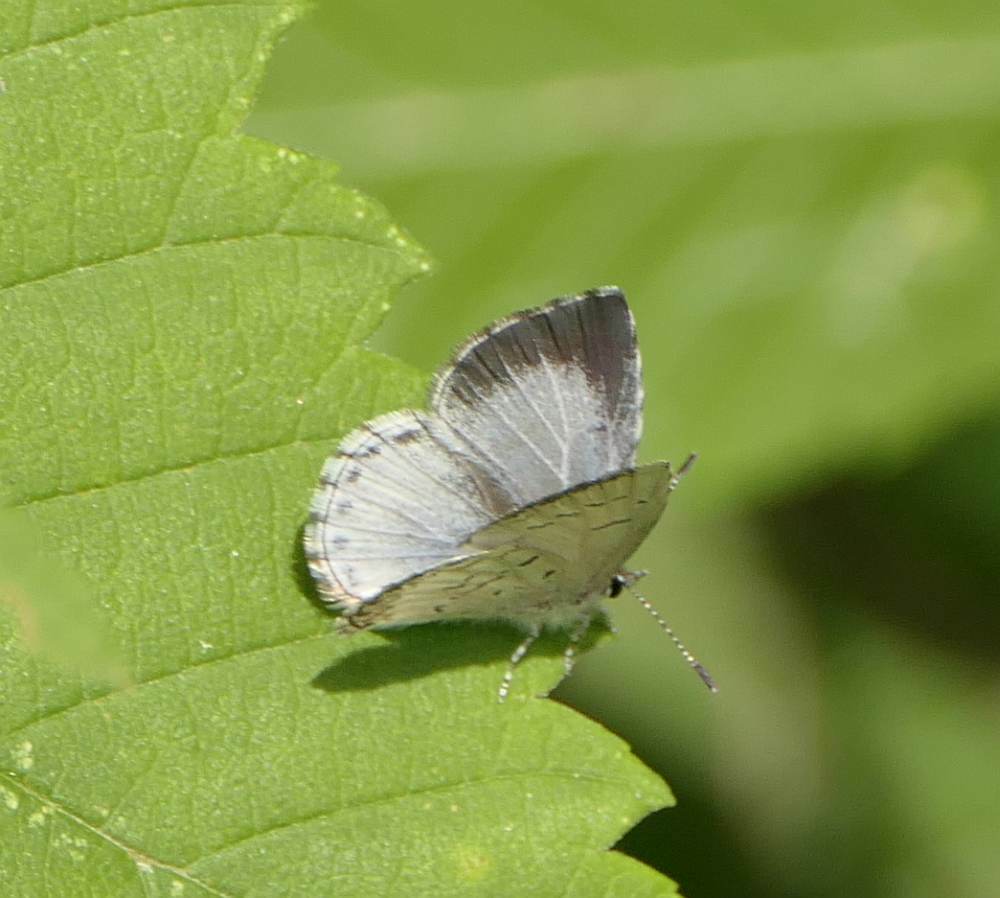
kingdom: Animalia
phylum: Arthropoda
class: Insecta
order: Lepidoptera
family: Lycaenidae
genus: Celastrina
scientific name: Celastrina lucia
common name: Lucia azure
